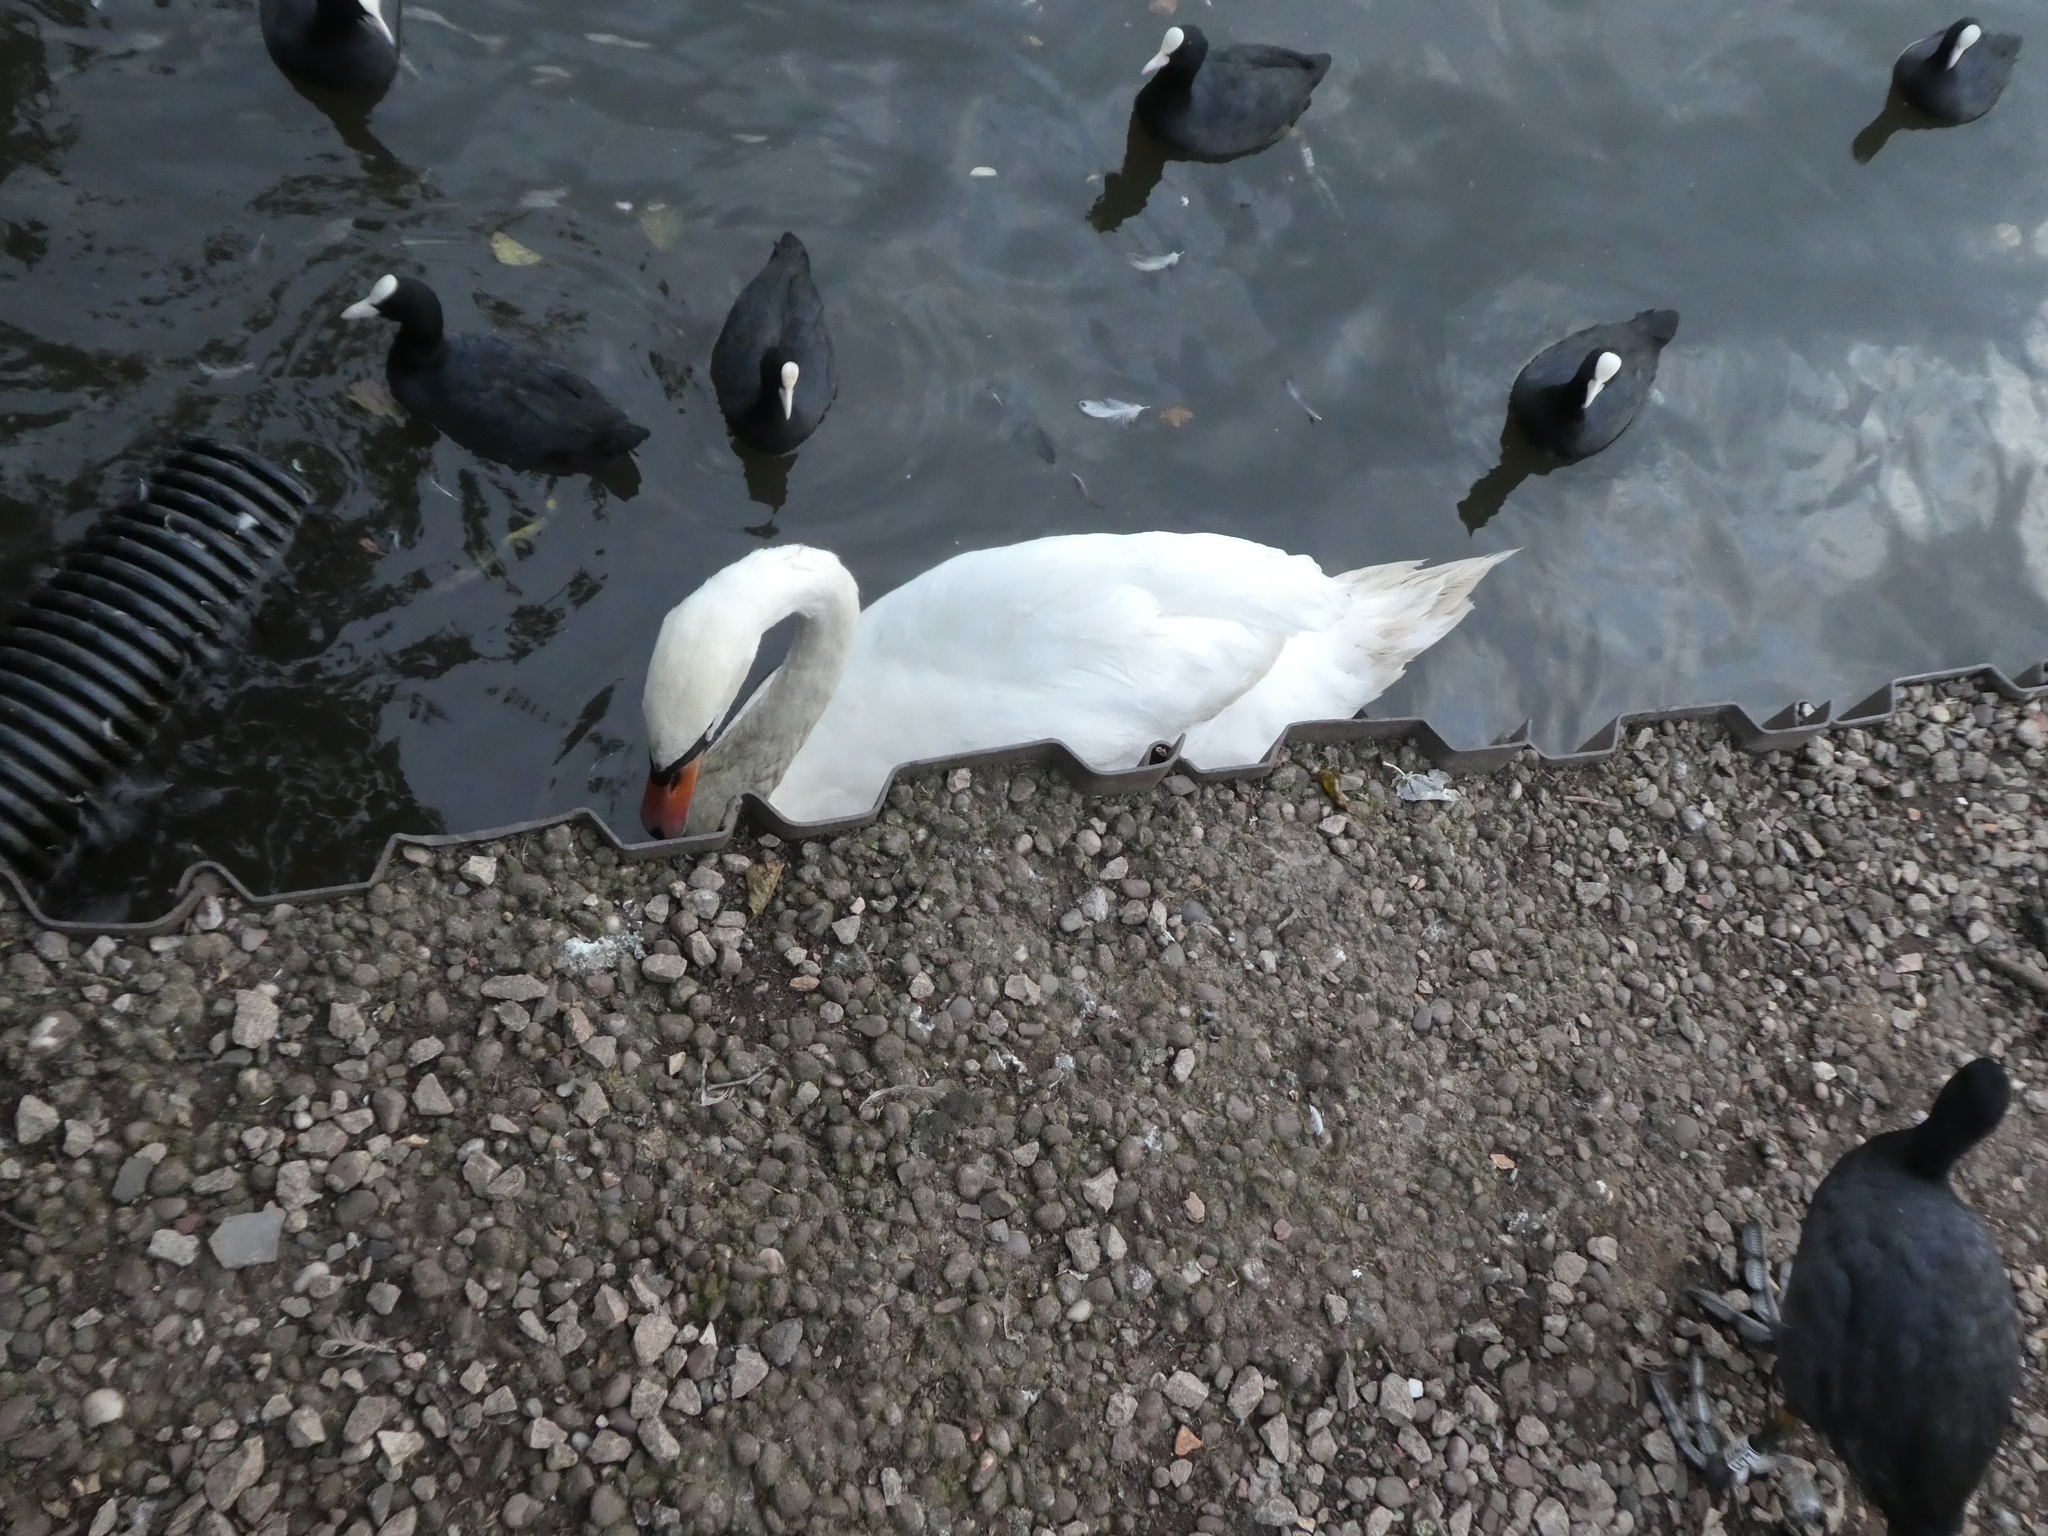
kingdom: Animalia
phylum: Chordata
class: Aves
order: Anseriformes
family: Anatidae
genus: Cygnus
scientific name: Cygnus olor
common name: Mute swan
